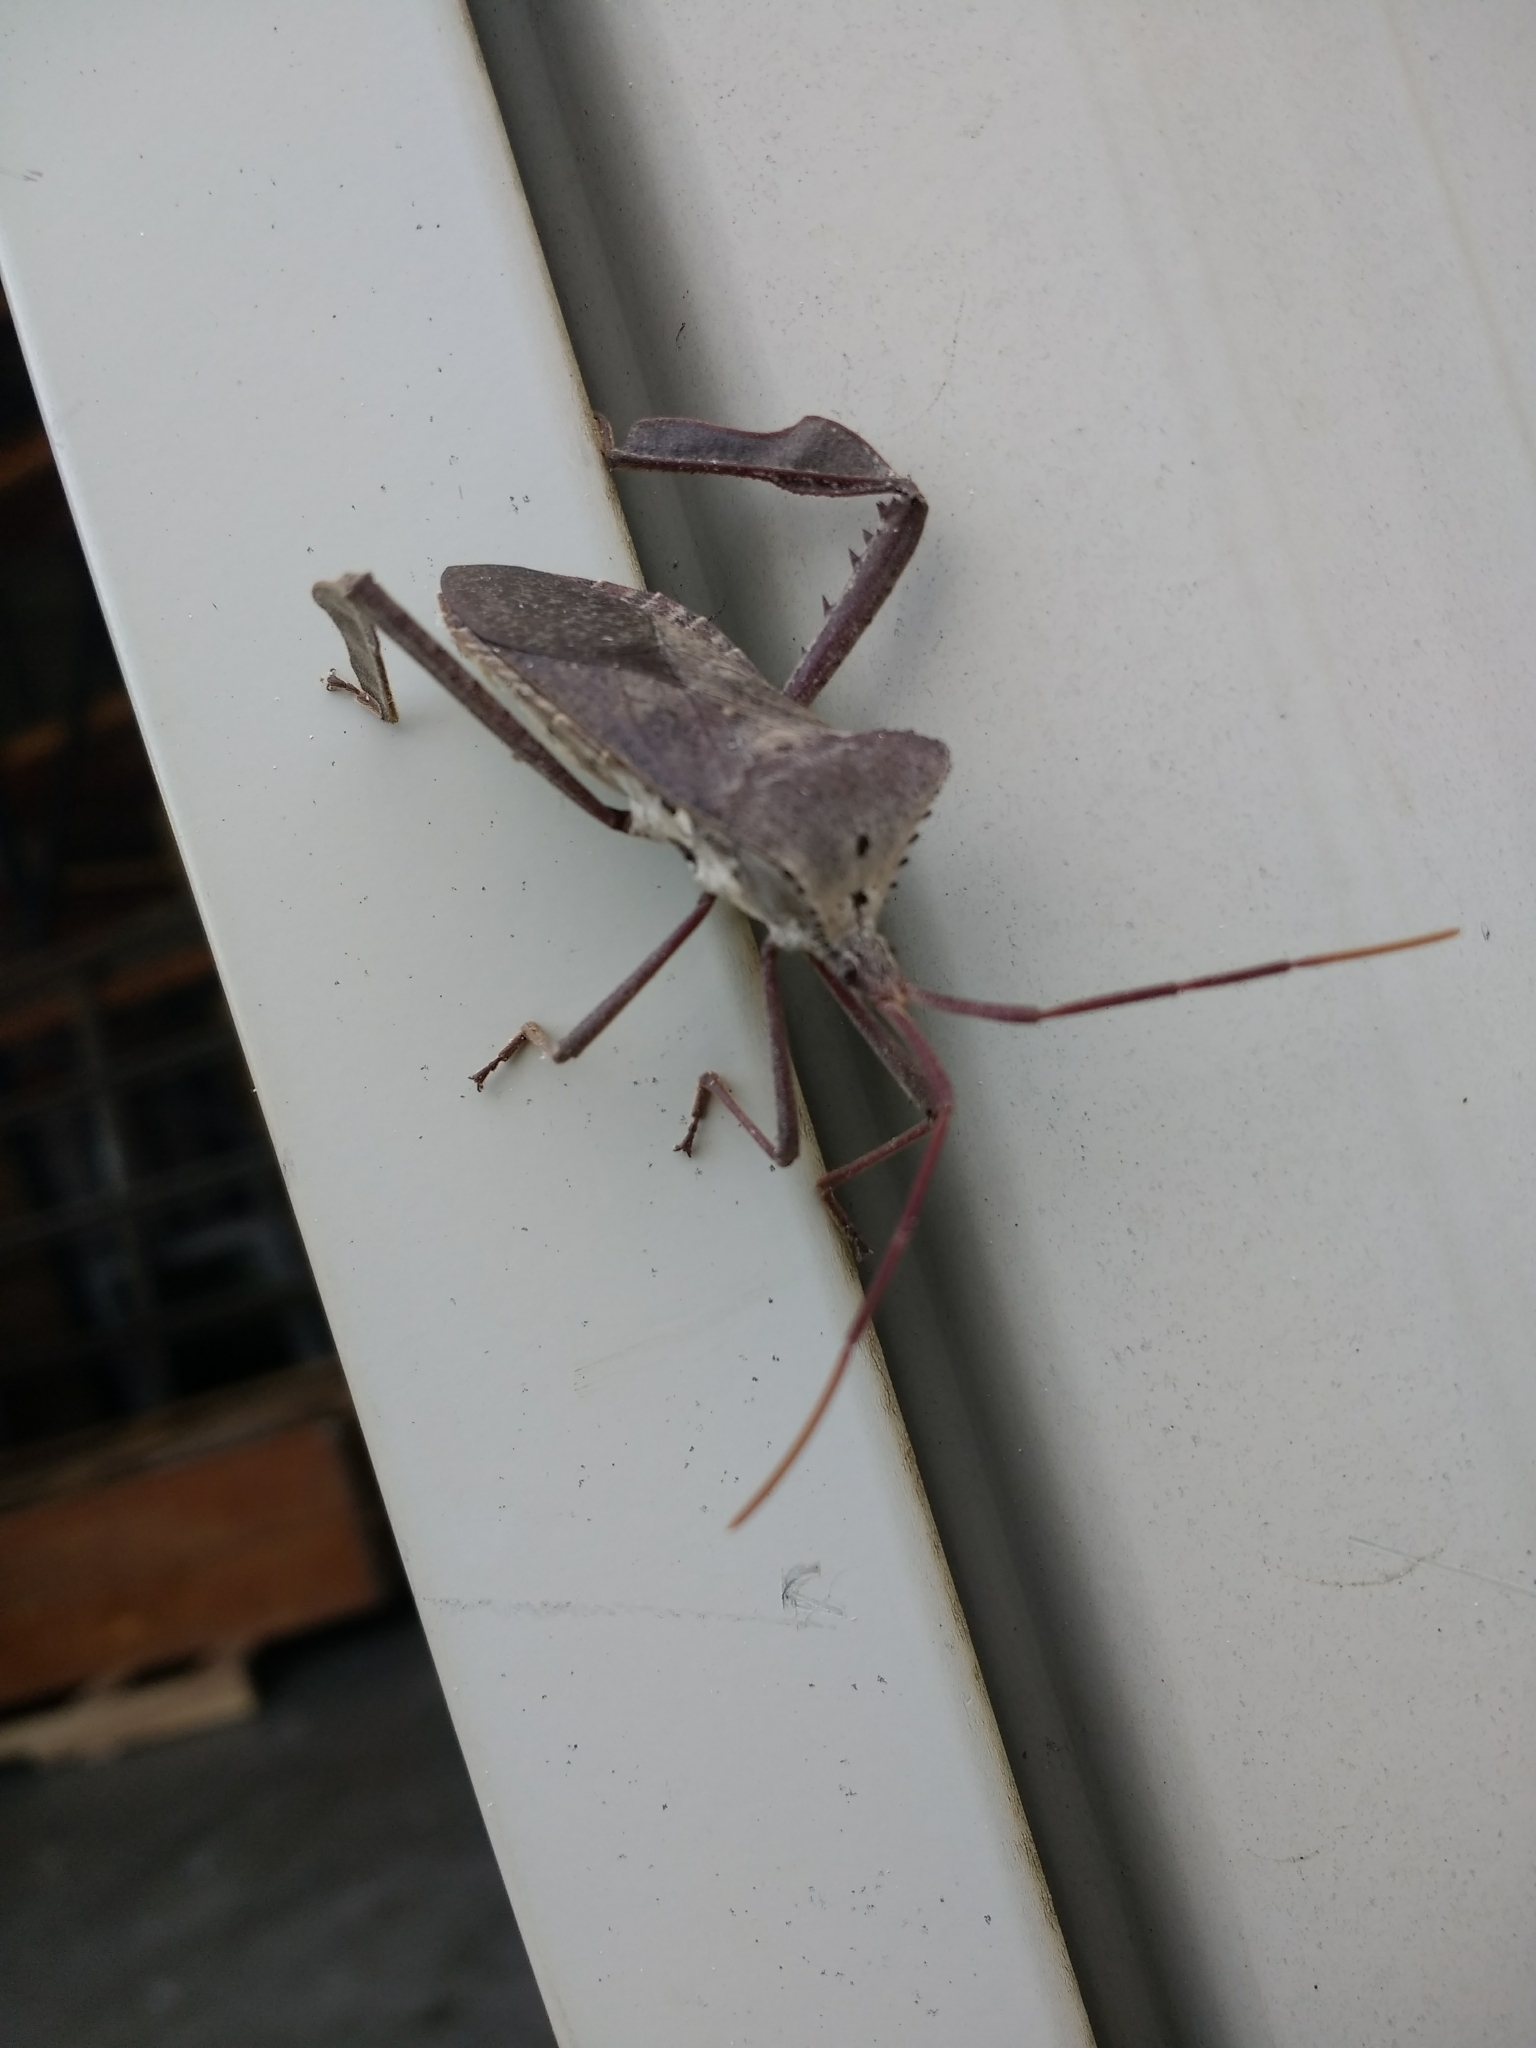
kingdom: Animalia
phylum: Arthropoda
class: Insecta
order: Hemiptera
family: Coreidae
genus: Acanthocephala
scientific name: Acanthocephala declivis
